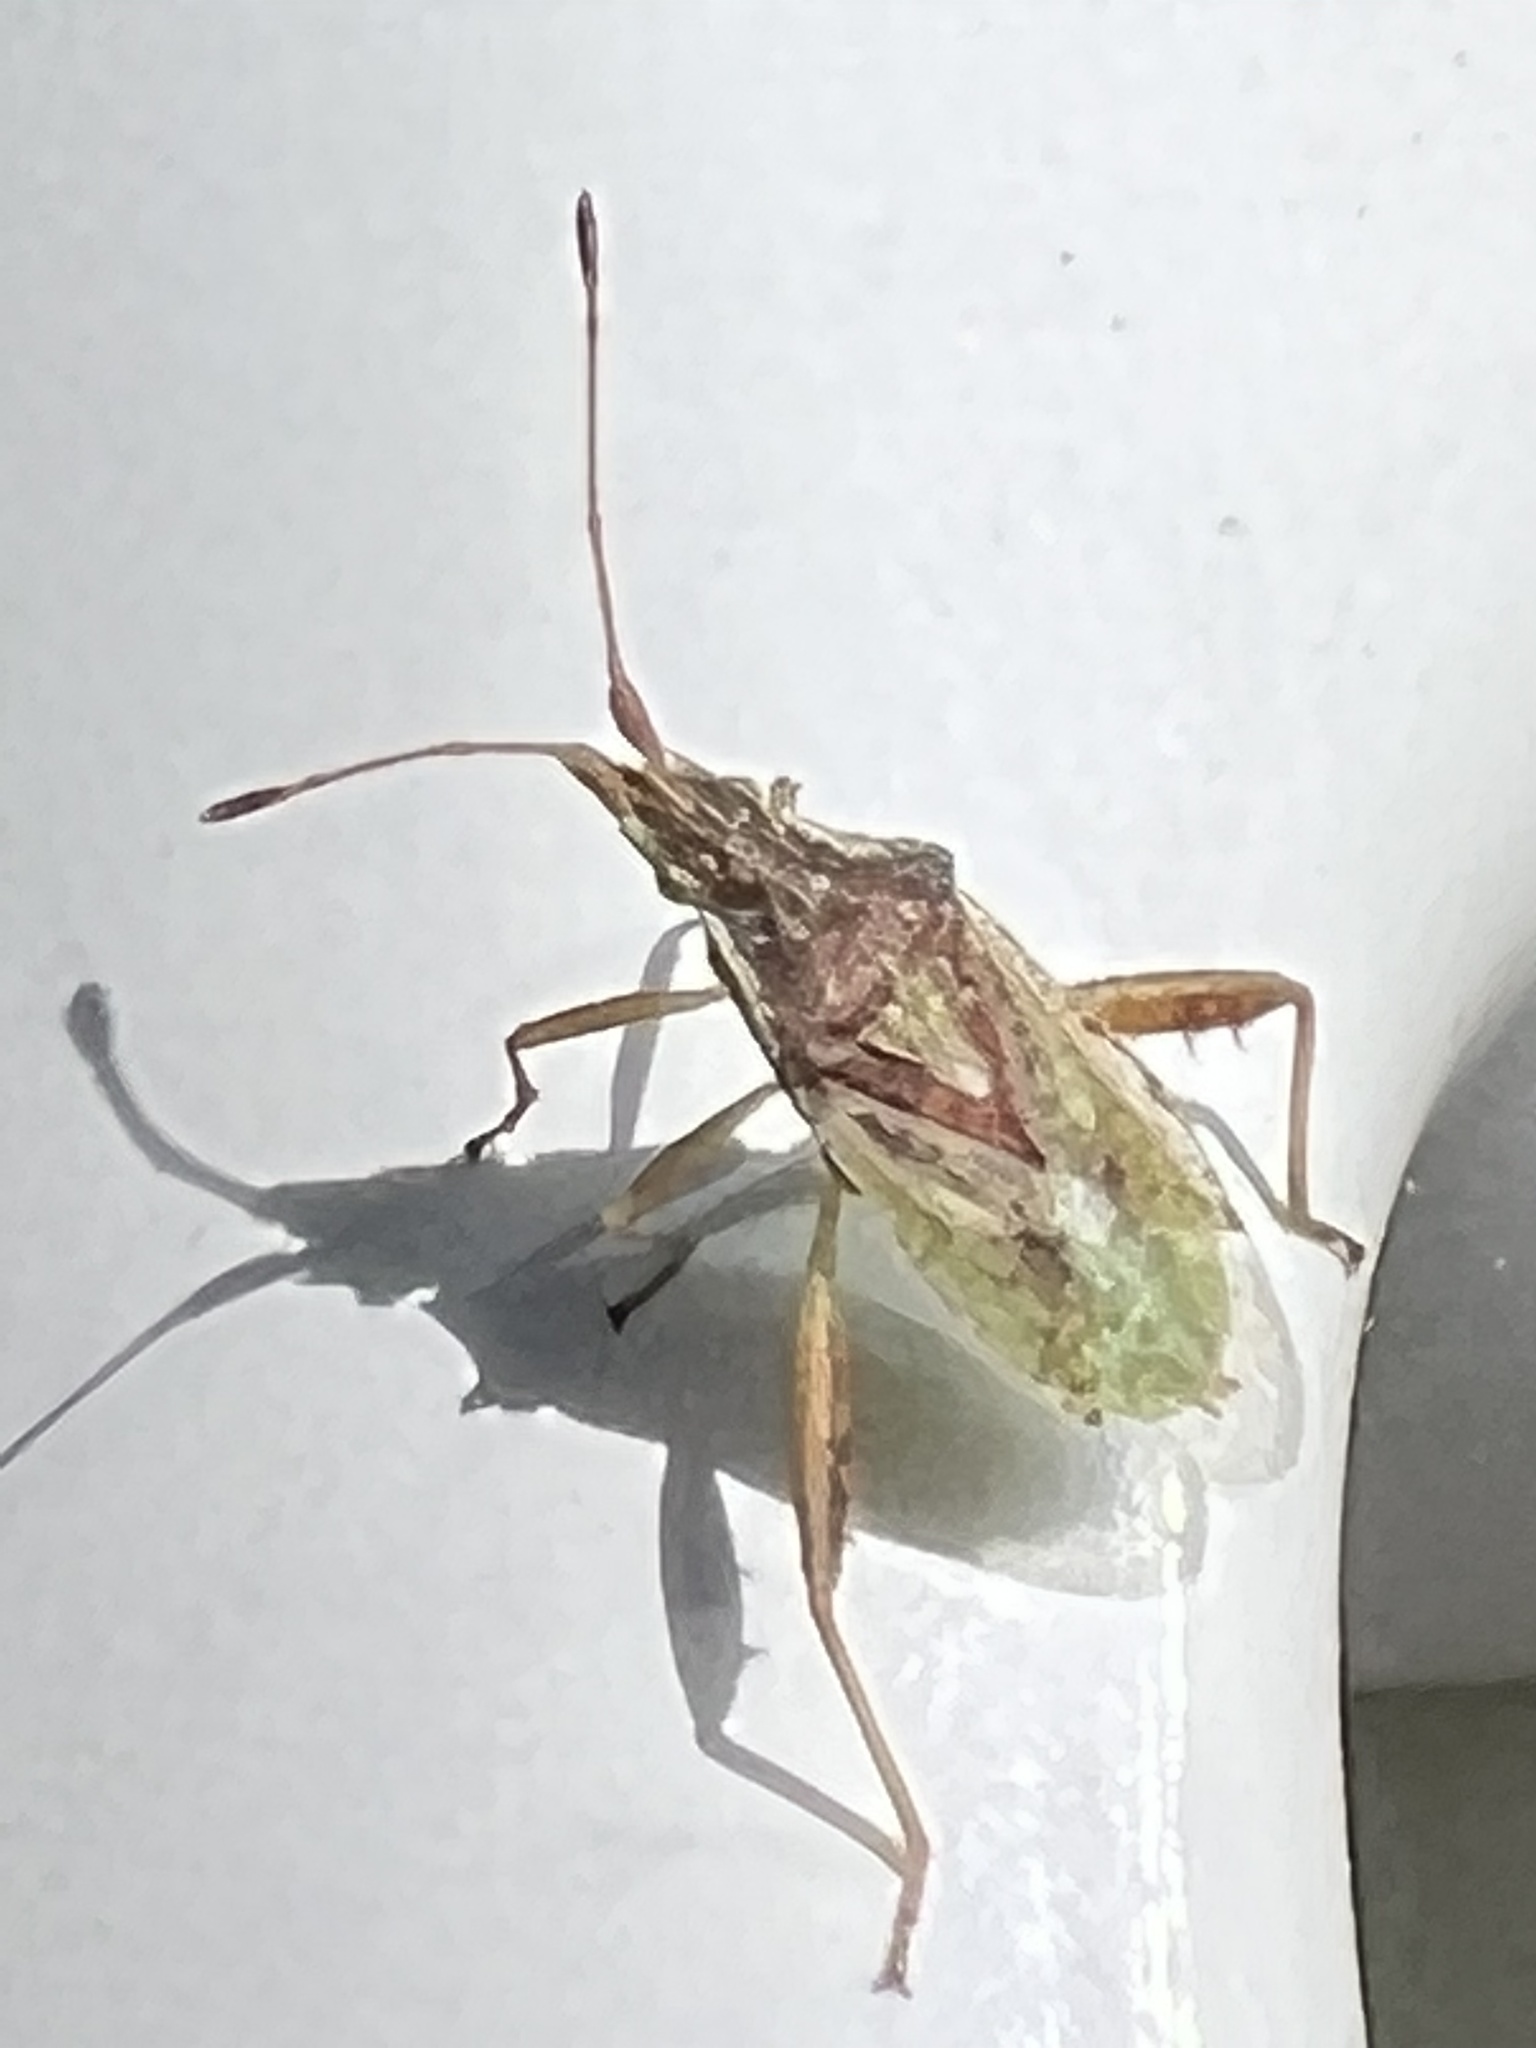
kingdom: Animalia
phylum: Arthropoda
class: Insecta
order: Hemiptera
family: Rhopalidae
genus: Harmostes
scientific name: Harmostes reflexulus
